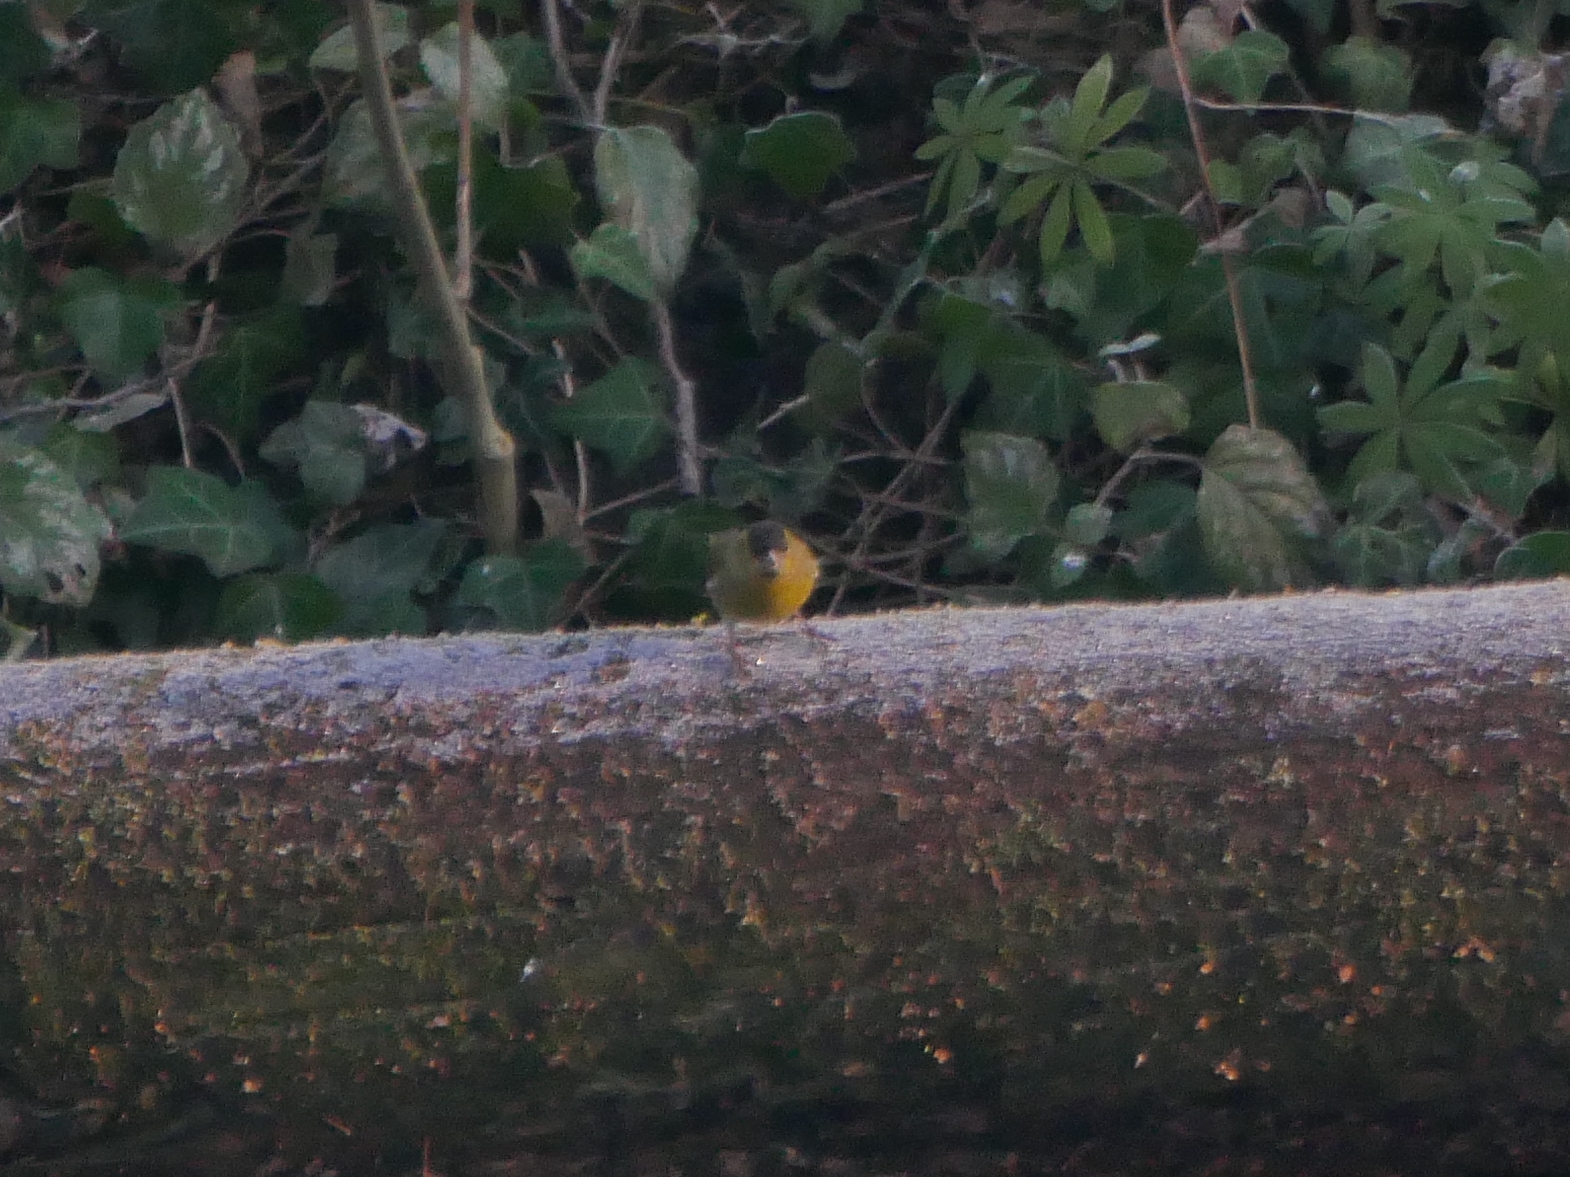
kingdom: Animalia
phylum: Chordata
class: Aves
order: Passeriformes
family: Fringillidae
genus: Spinus
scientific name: Spinus spinus
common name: Eurasian siskin
